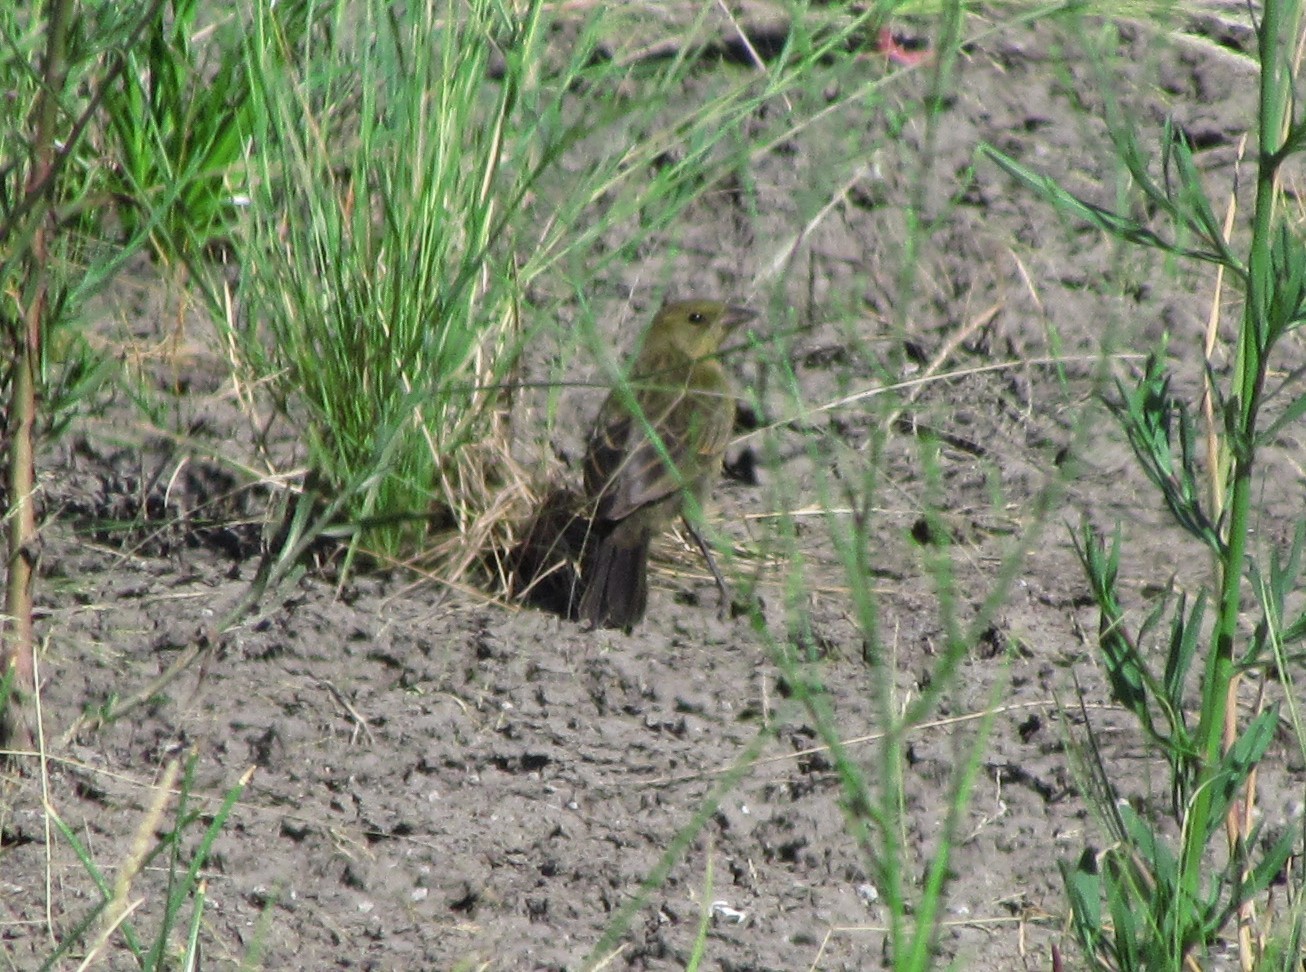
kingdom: Animalia
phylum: Chordata
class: Aves
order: Passeriformes
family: Icteridae
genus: Chrysomus
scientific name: Chrysomus ruficapillus
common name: Chestnut-capped blackbird
